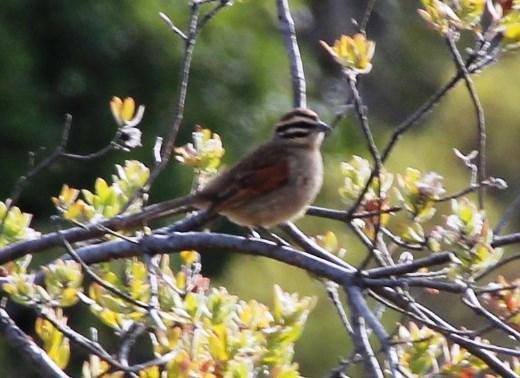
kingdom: Animalia
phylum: Chordata
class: Aves
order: Passeriformes
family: Emberizidae
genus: Emberiza
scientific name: Emberiza capensis
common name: Cape bunting
